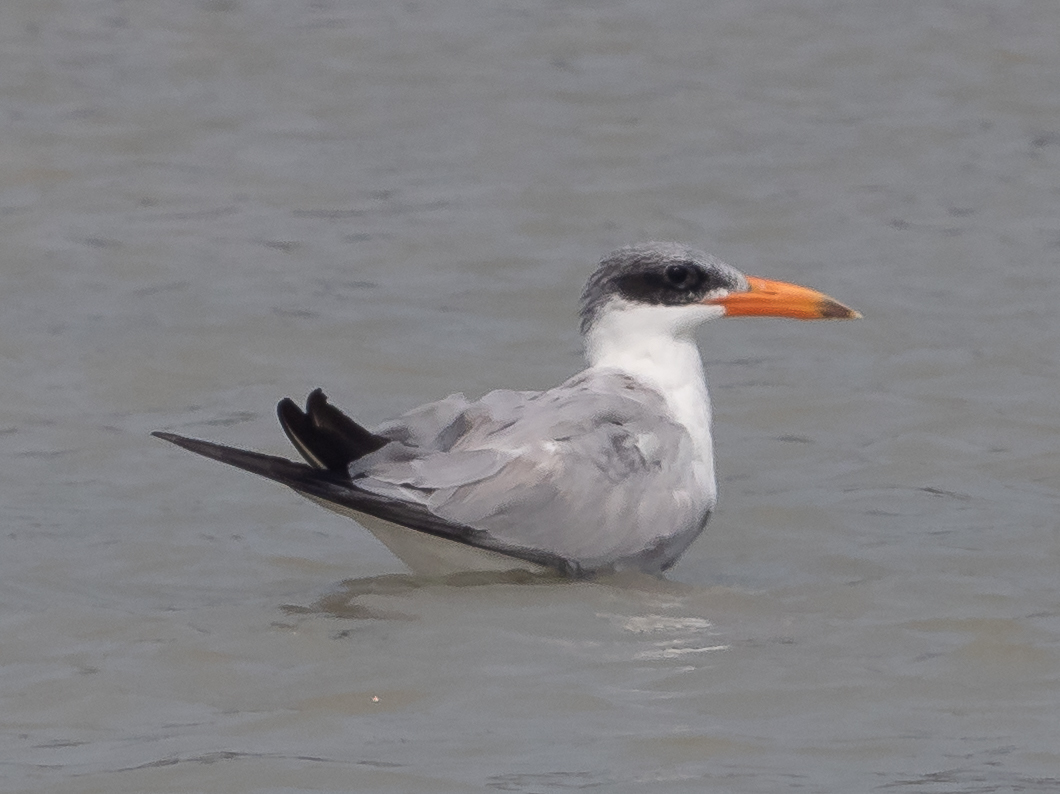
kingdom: Animalia
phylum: Chordata
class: Aves
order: Charadriiformes
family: Laridae
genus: Hydroprogne
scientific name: Hydroprogne caspia
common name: Caspian tern
